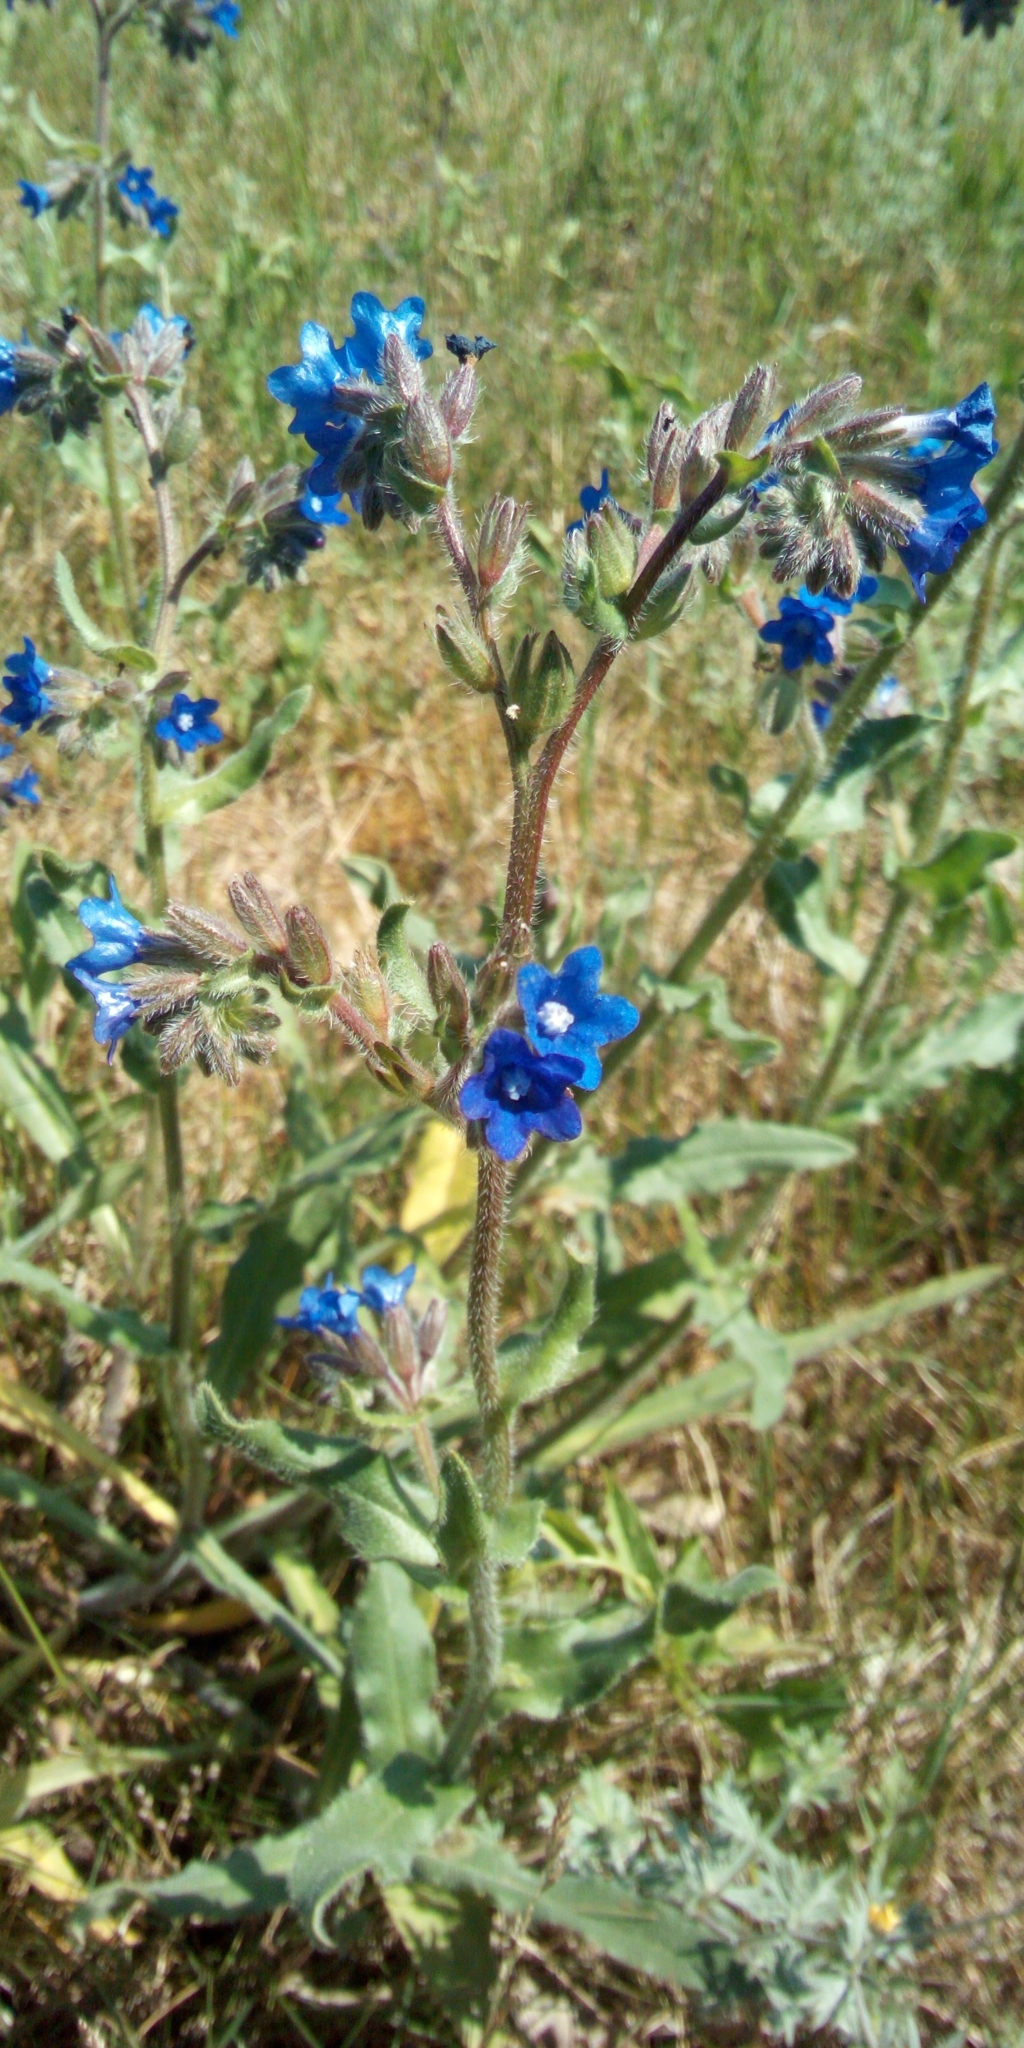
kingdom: Plantae
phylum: Tracheophyta
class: Magnoliopsida
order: Boraginales
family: Boraginaceae
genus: Anchusa
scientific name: Anchusa officinalis
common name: Alkanet
